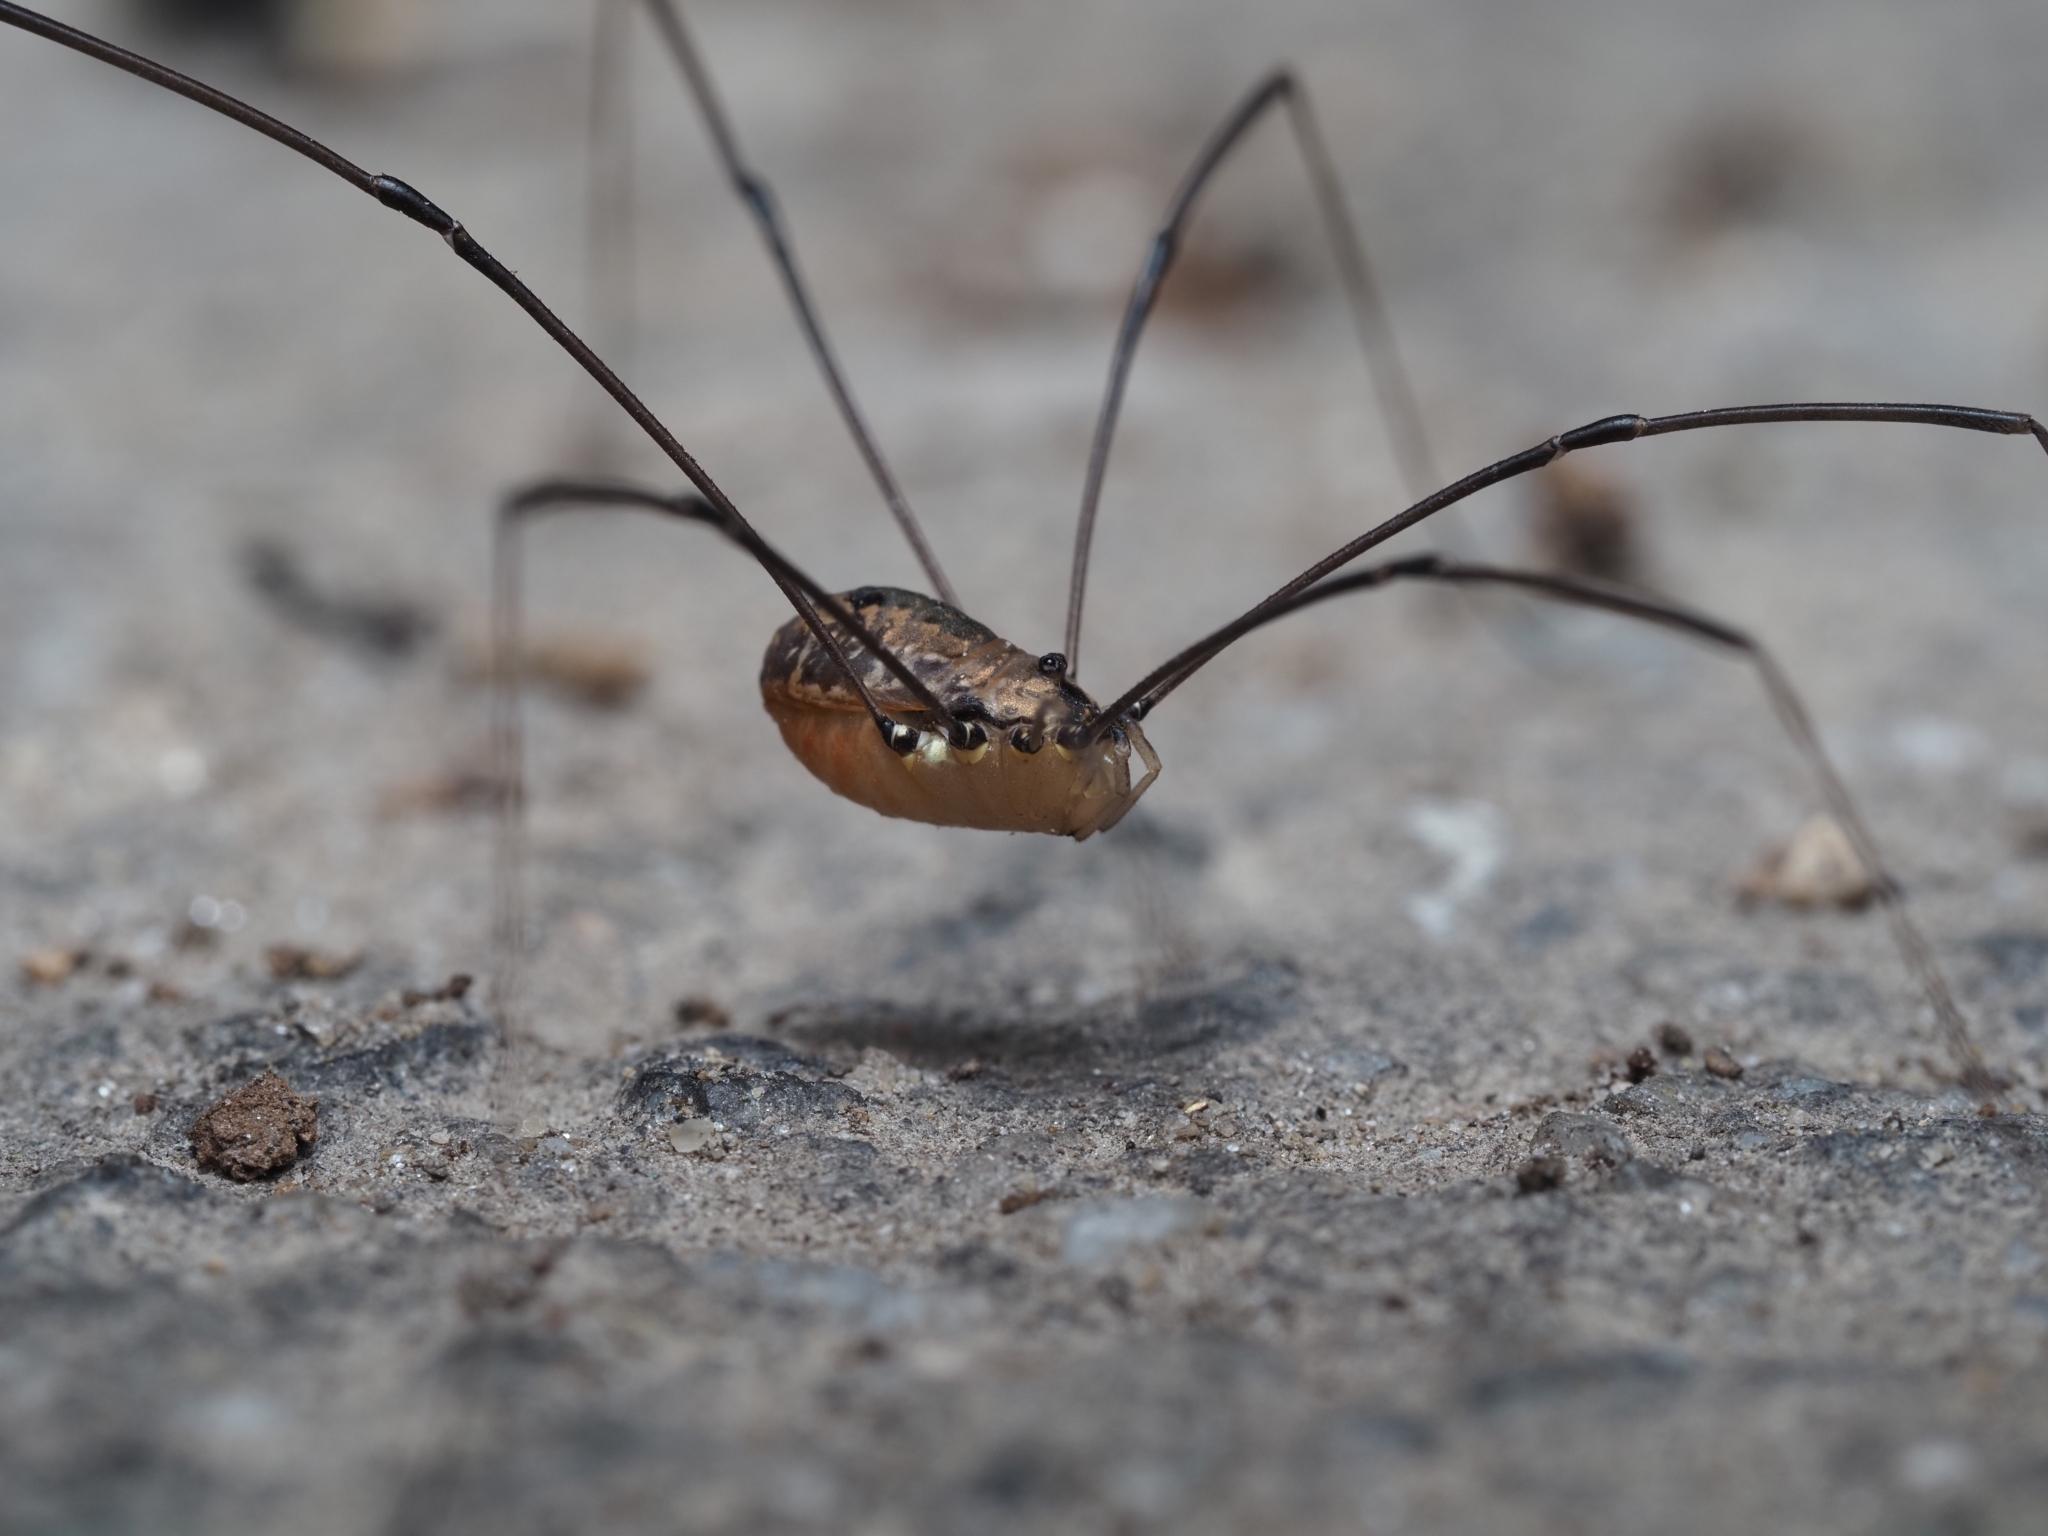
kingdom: Animalia
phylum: Arthropoda
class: Arachnida
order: Opiliones
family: Sclerosomatidae
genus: Leiobunum
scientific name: Leiobunum rotundum
